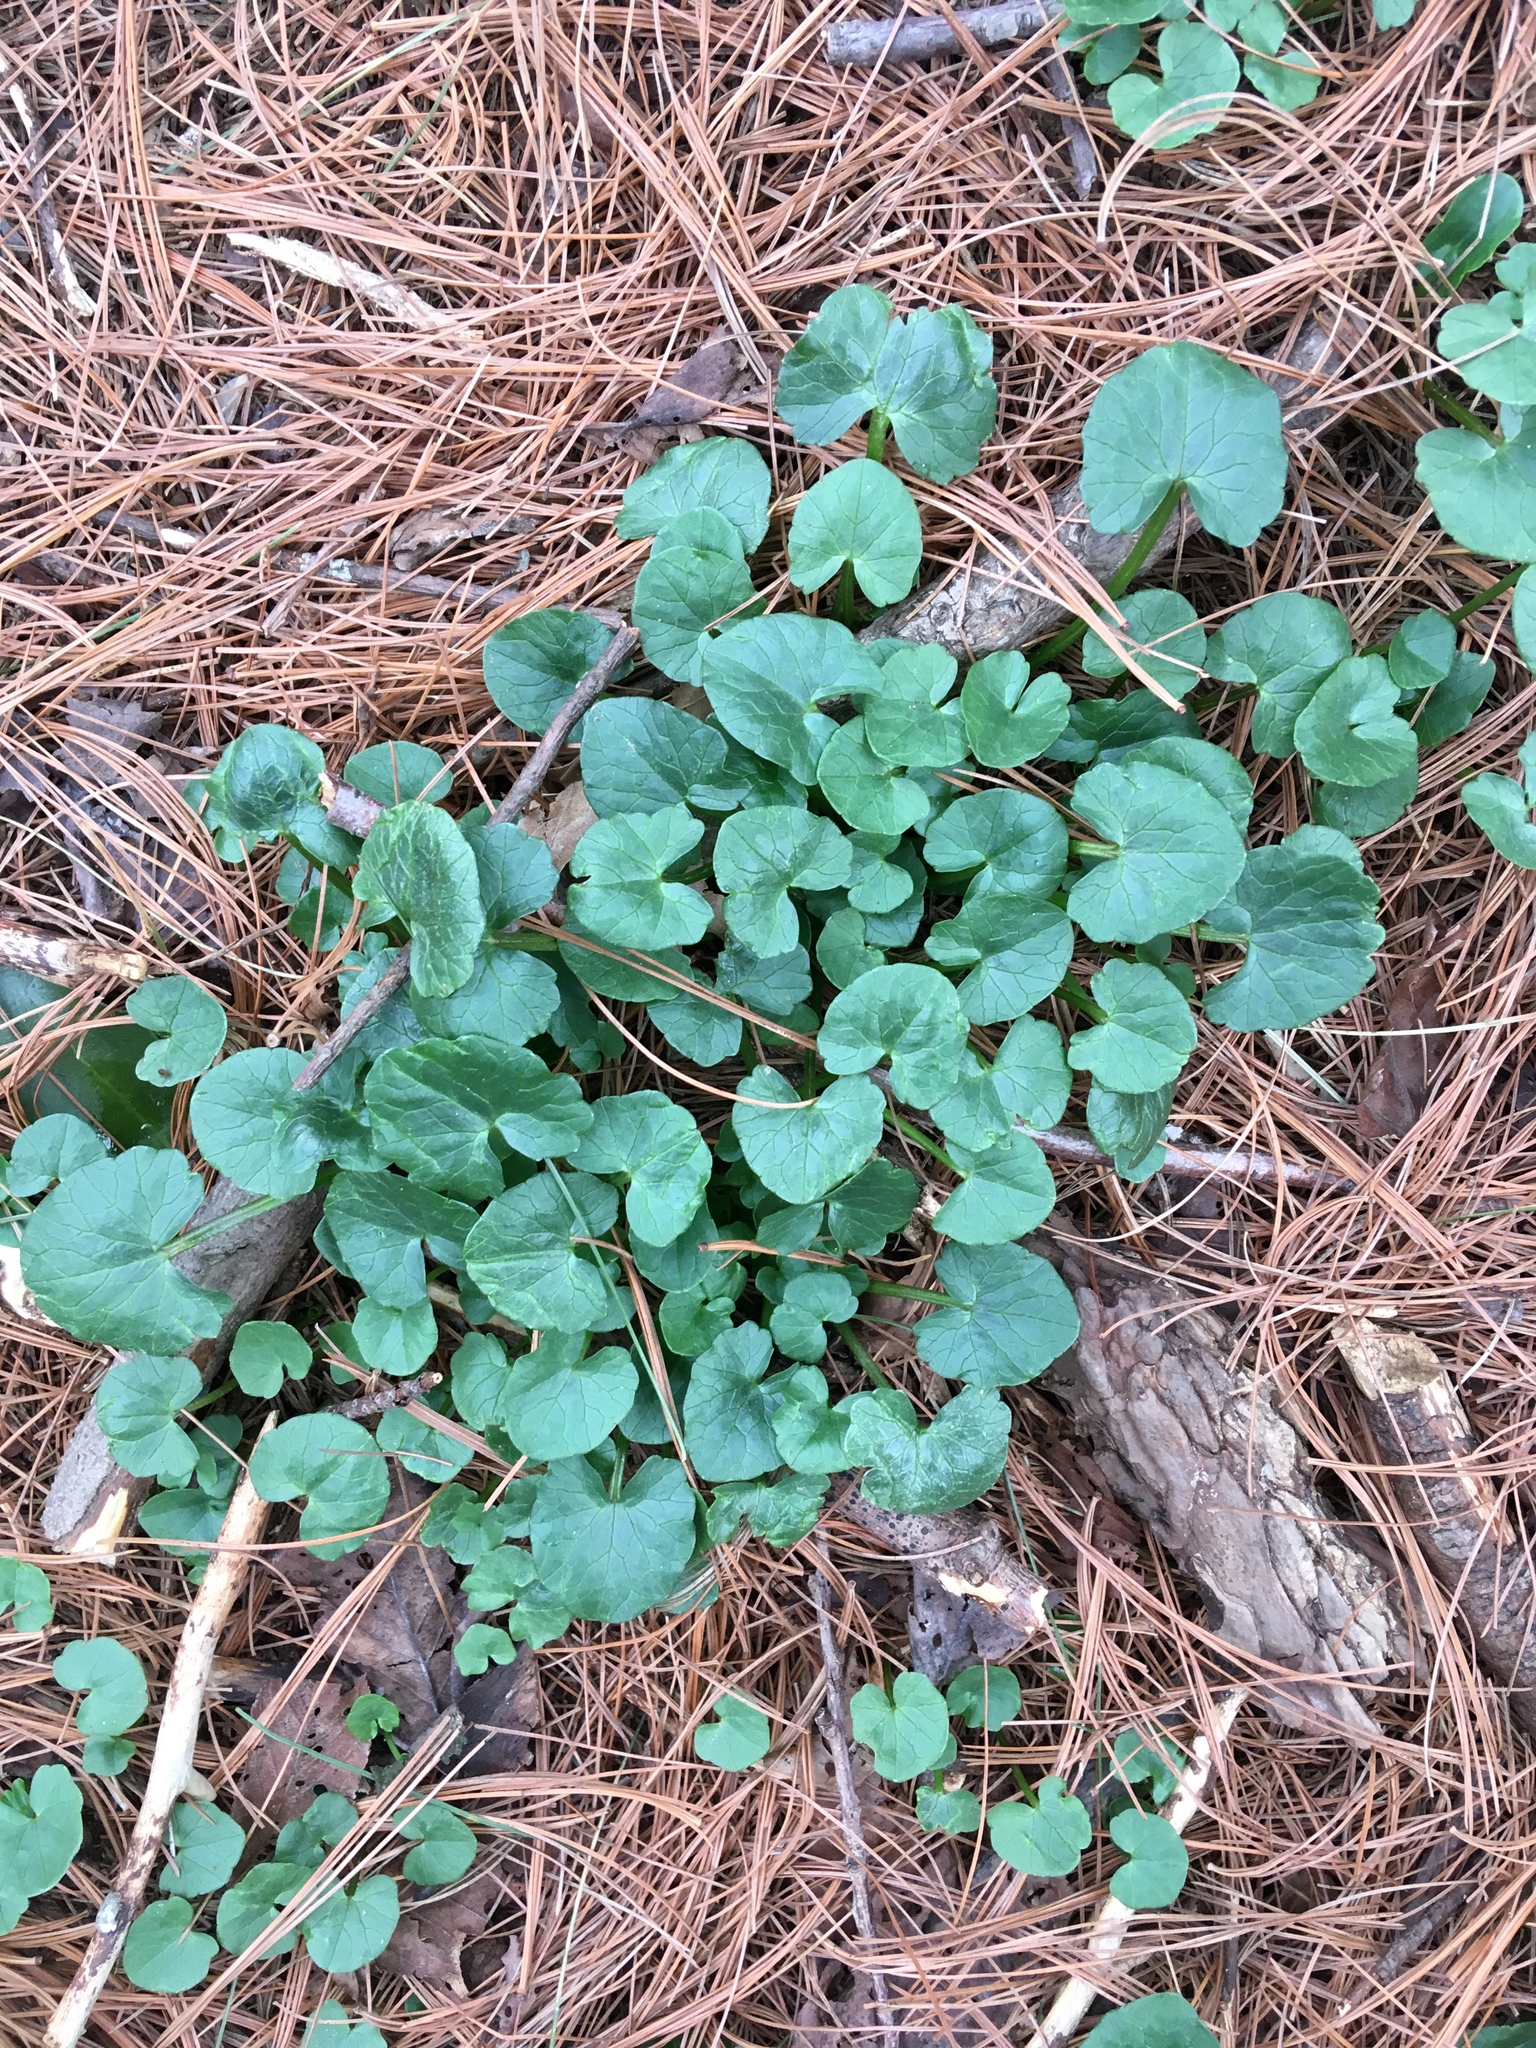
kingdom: Plantae
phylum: Tracheophyta
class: Magnoliopsida
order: Ranunculales
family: Ranunculaceae
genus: Ficaria
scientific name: Ficaria verna
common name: Lesser celandine
